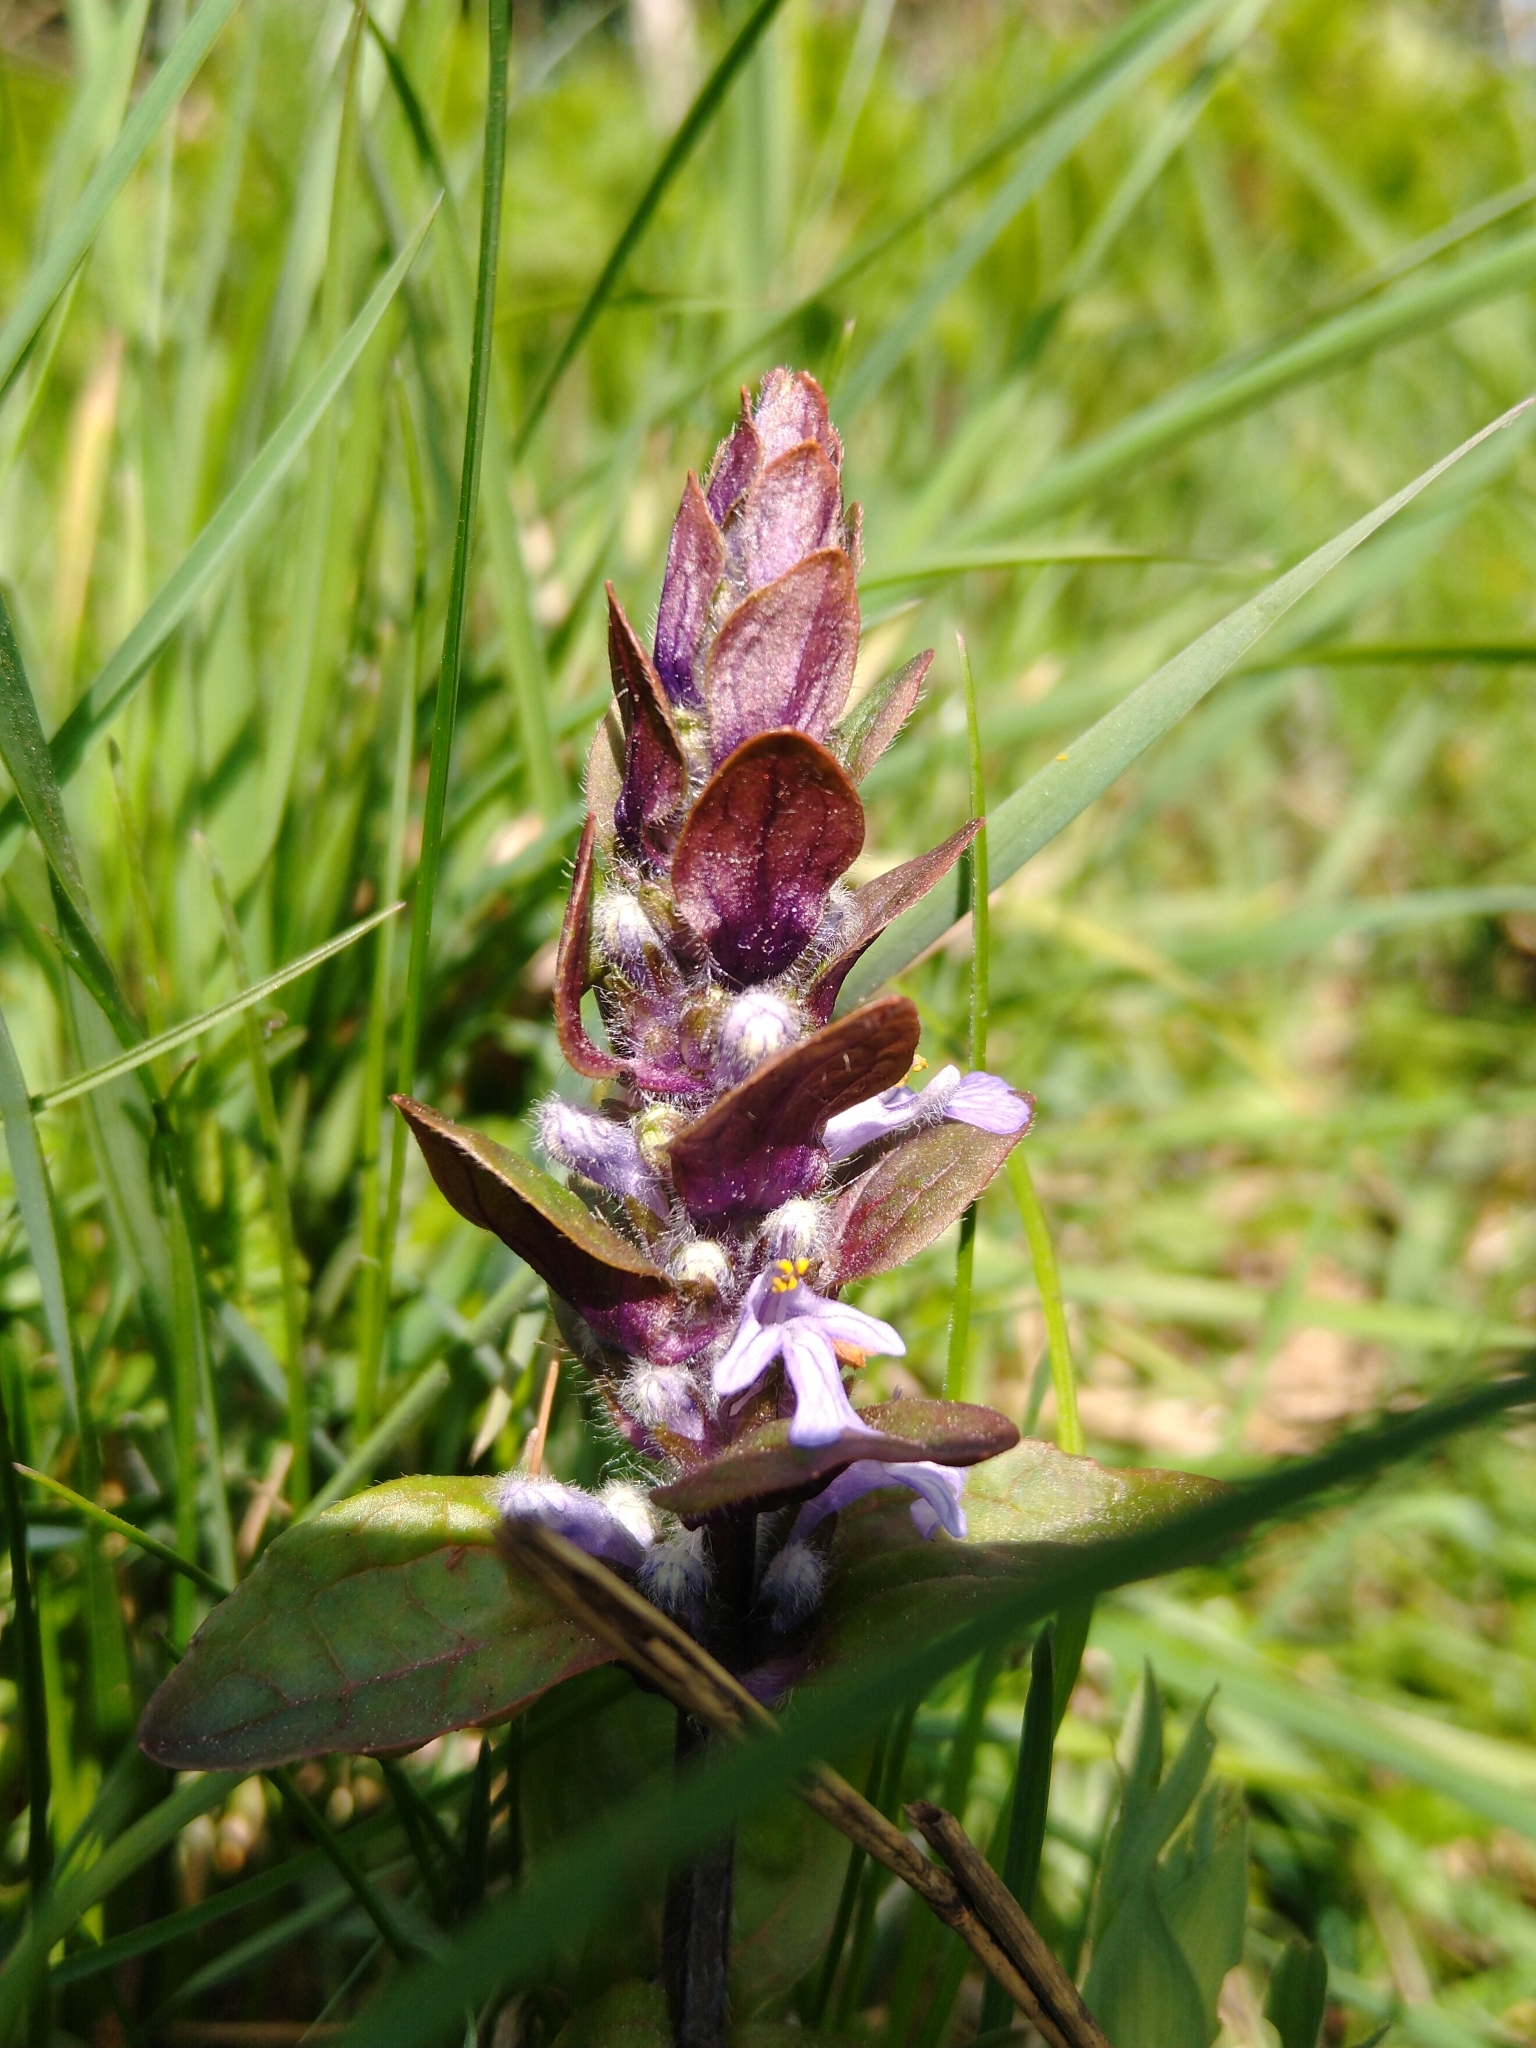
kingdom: Plantae
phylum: Tracheophyta
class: Magnoliopsida
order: Lamiales
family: Lamiaceae
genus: Ajuga
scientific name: Ajuga reptans
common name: Bugle
